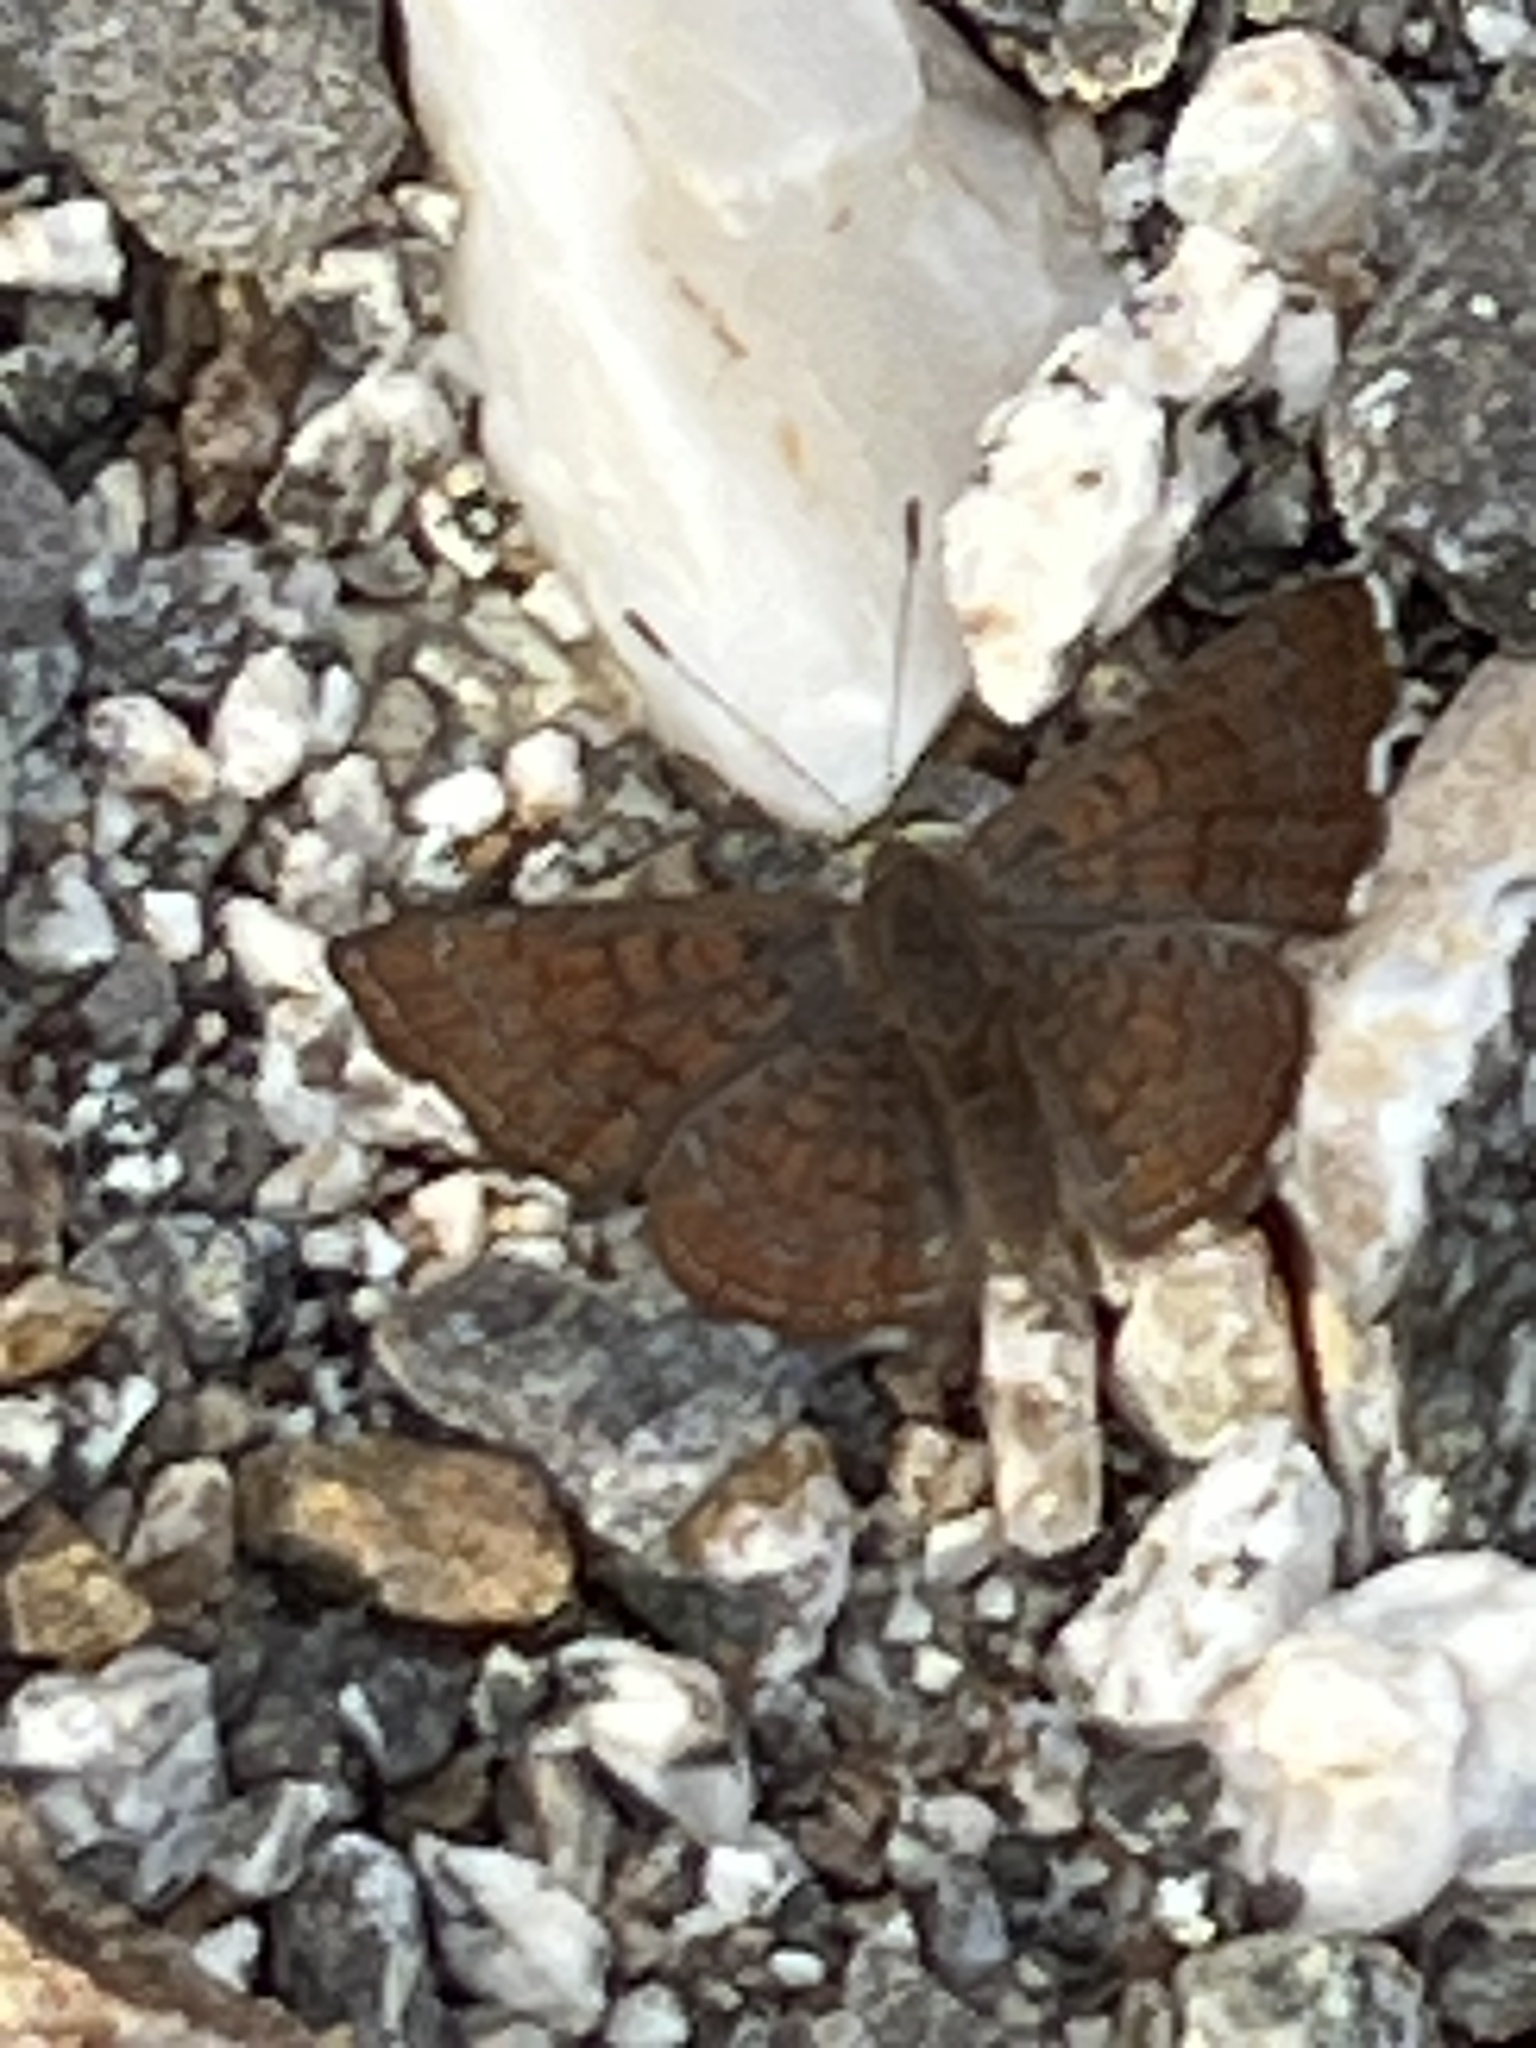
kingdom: Animalia
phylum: Arthropoda
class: Insecta
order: Lepidoptera
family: Lycaenidae
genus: Emesis
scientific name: Emesis wrighti
